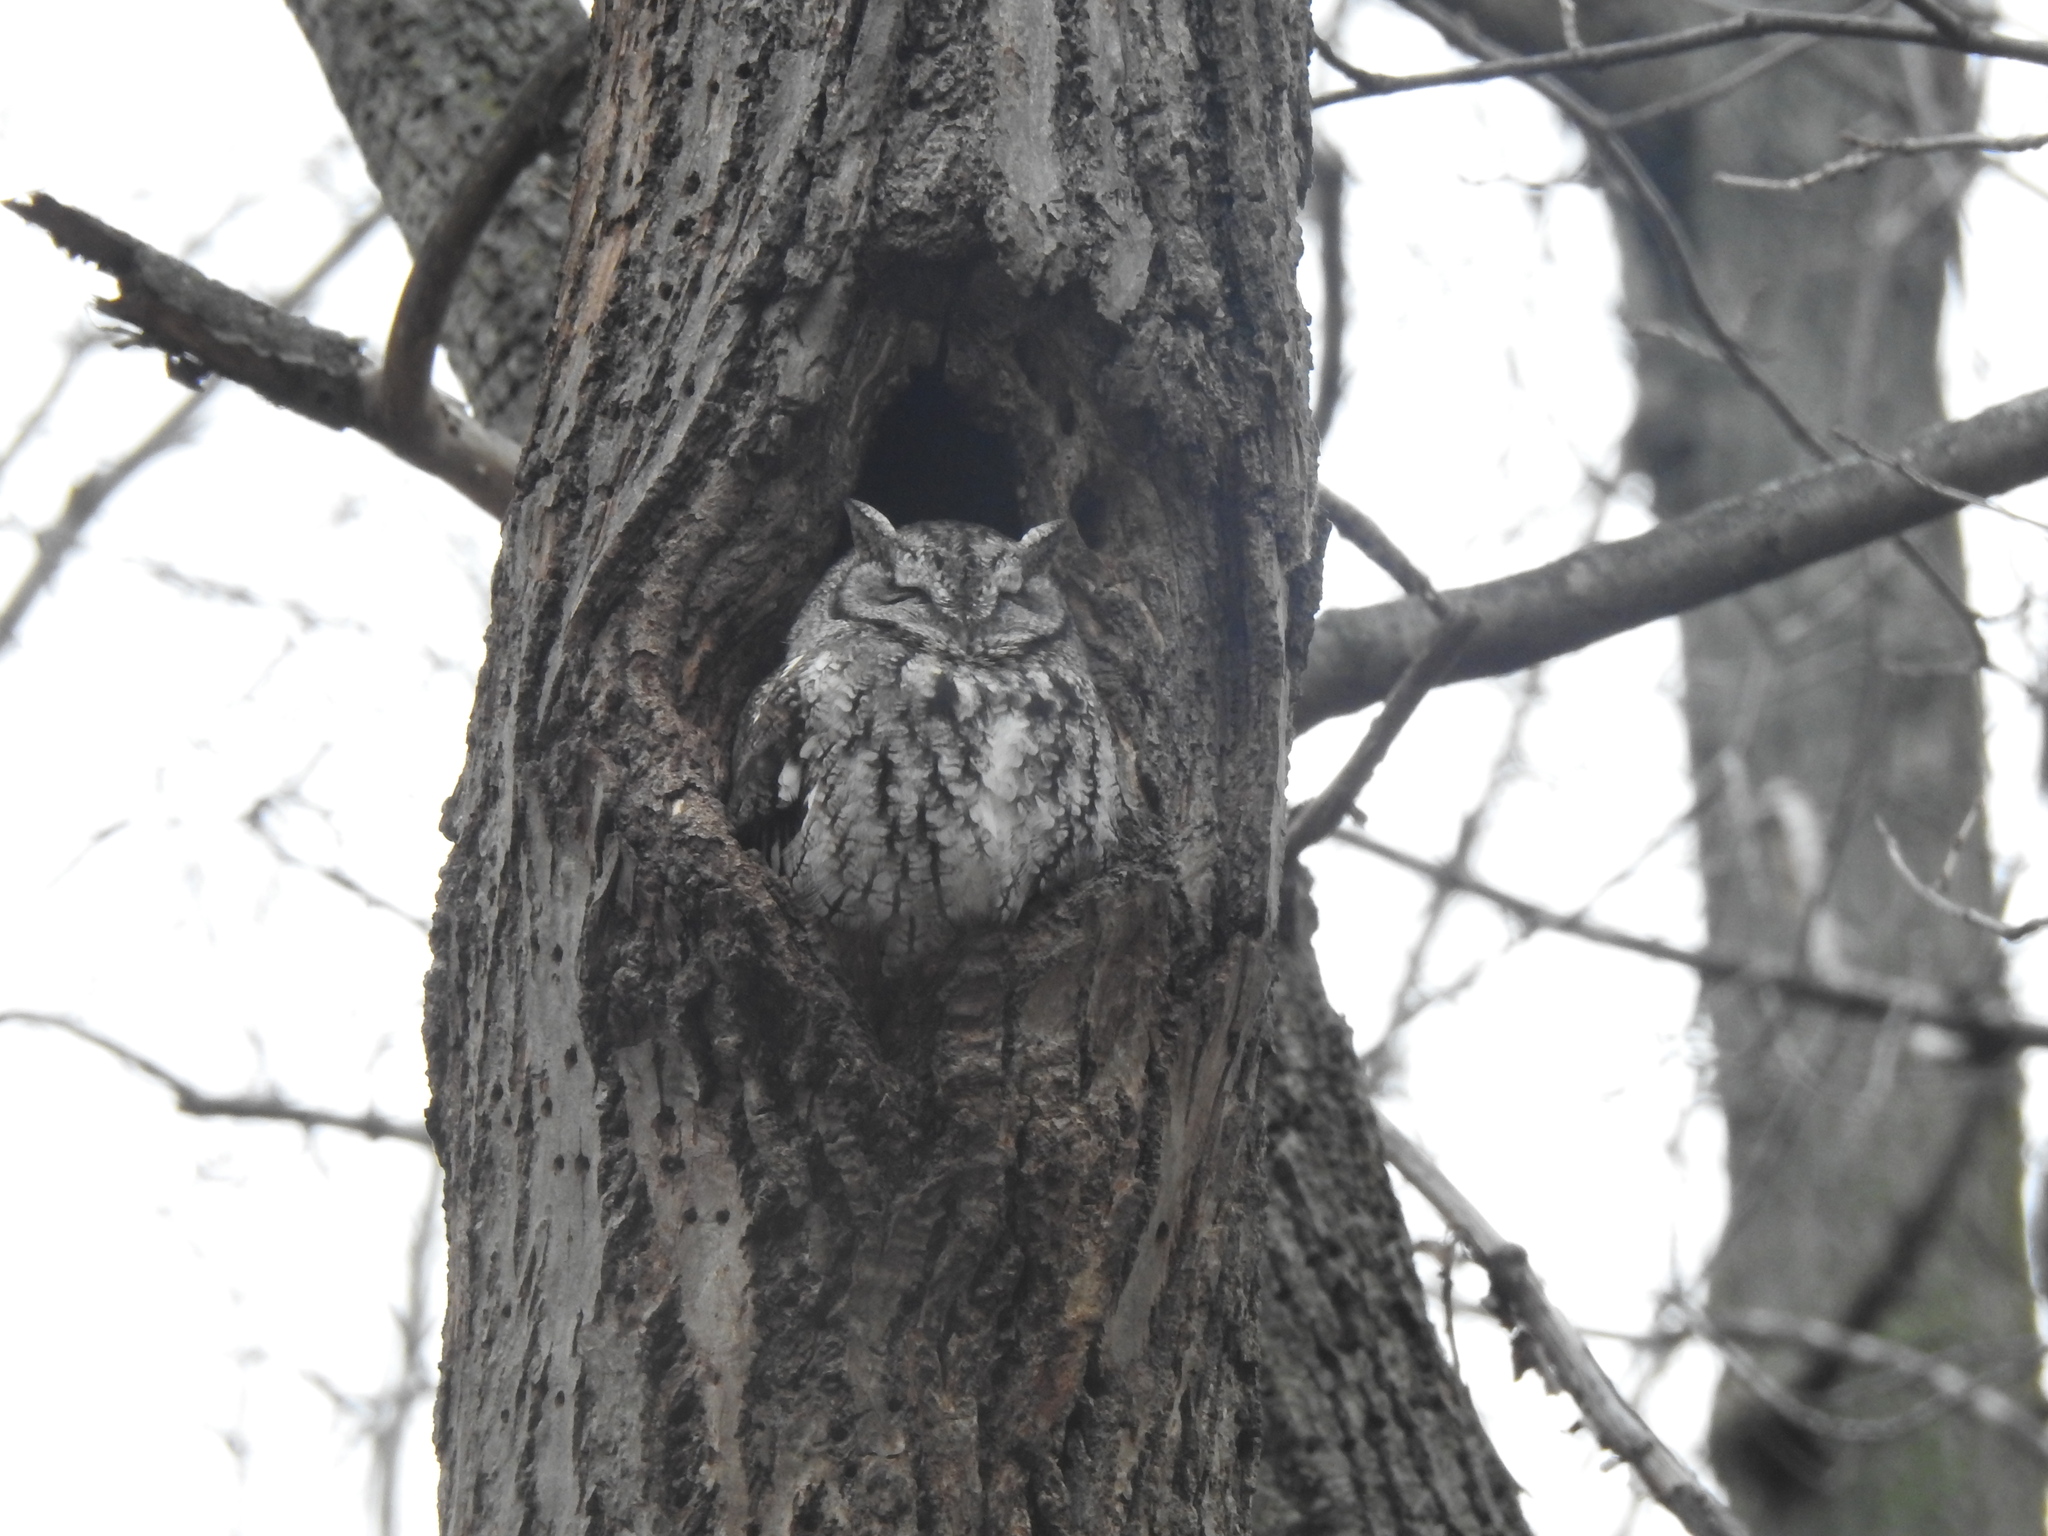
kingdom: Animalia
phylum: Chordata
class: Aves
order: Strigiformes
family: Strigidae
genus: Megascops
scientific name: Megascops asio
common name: Eastern screech-owl
